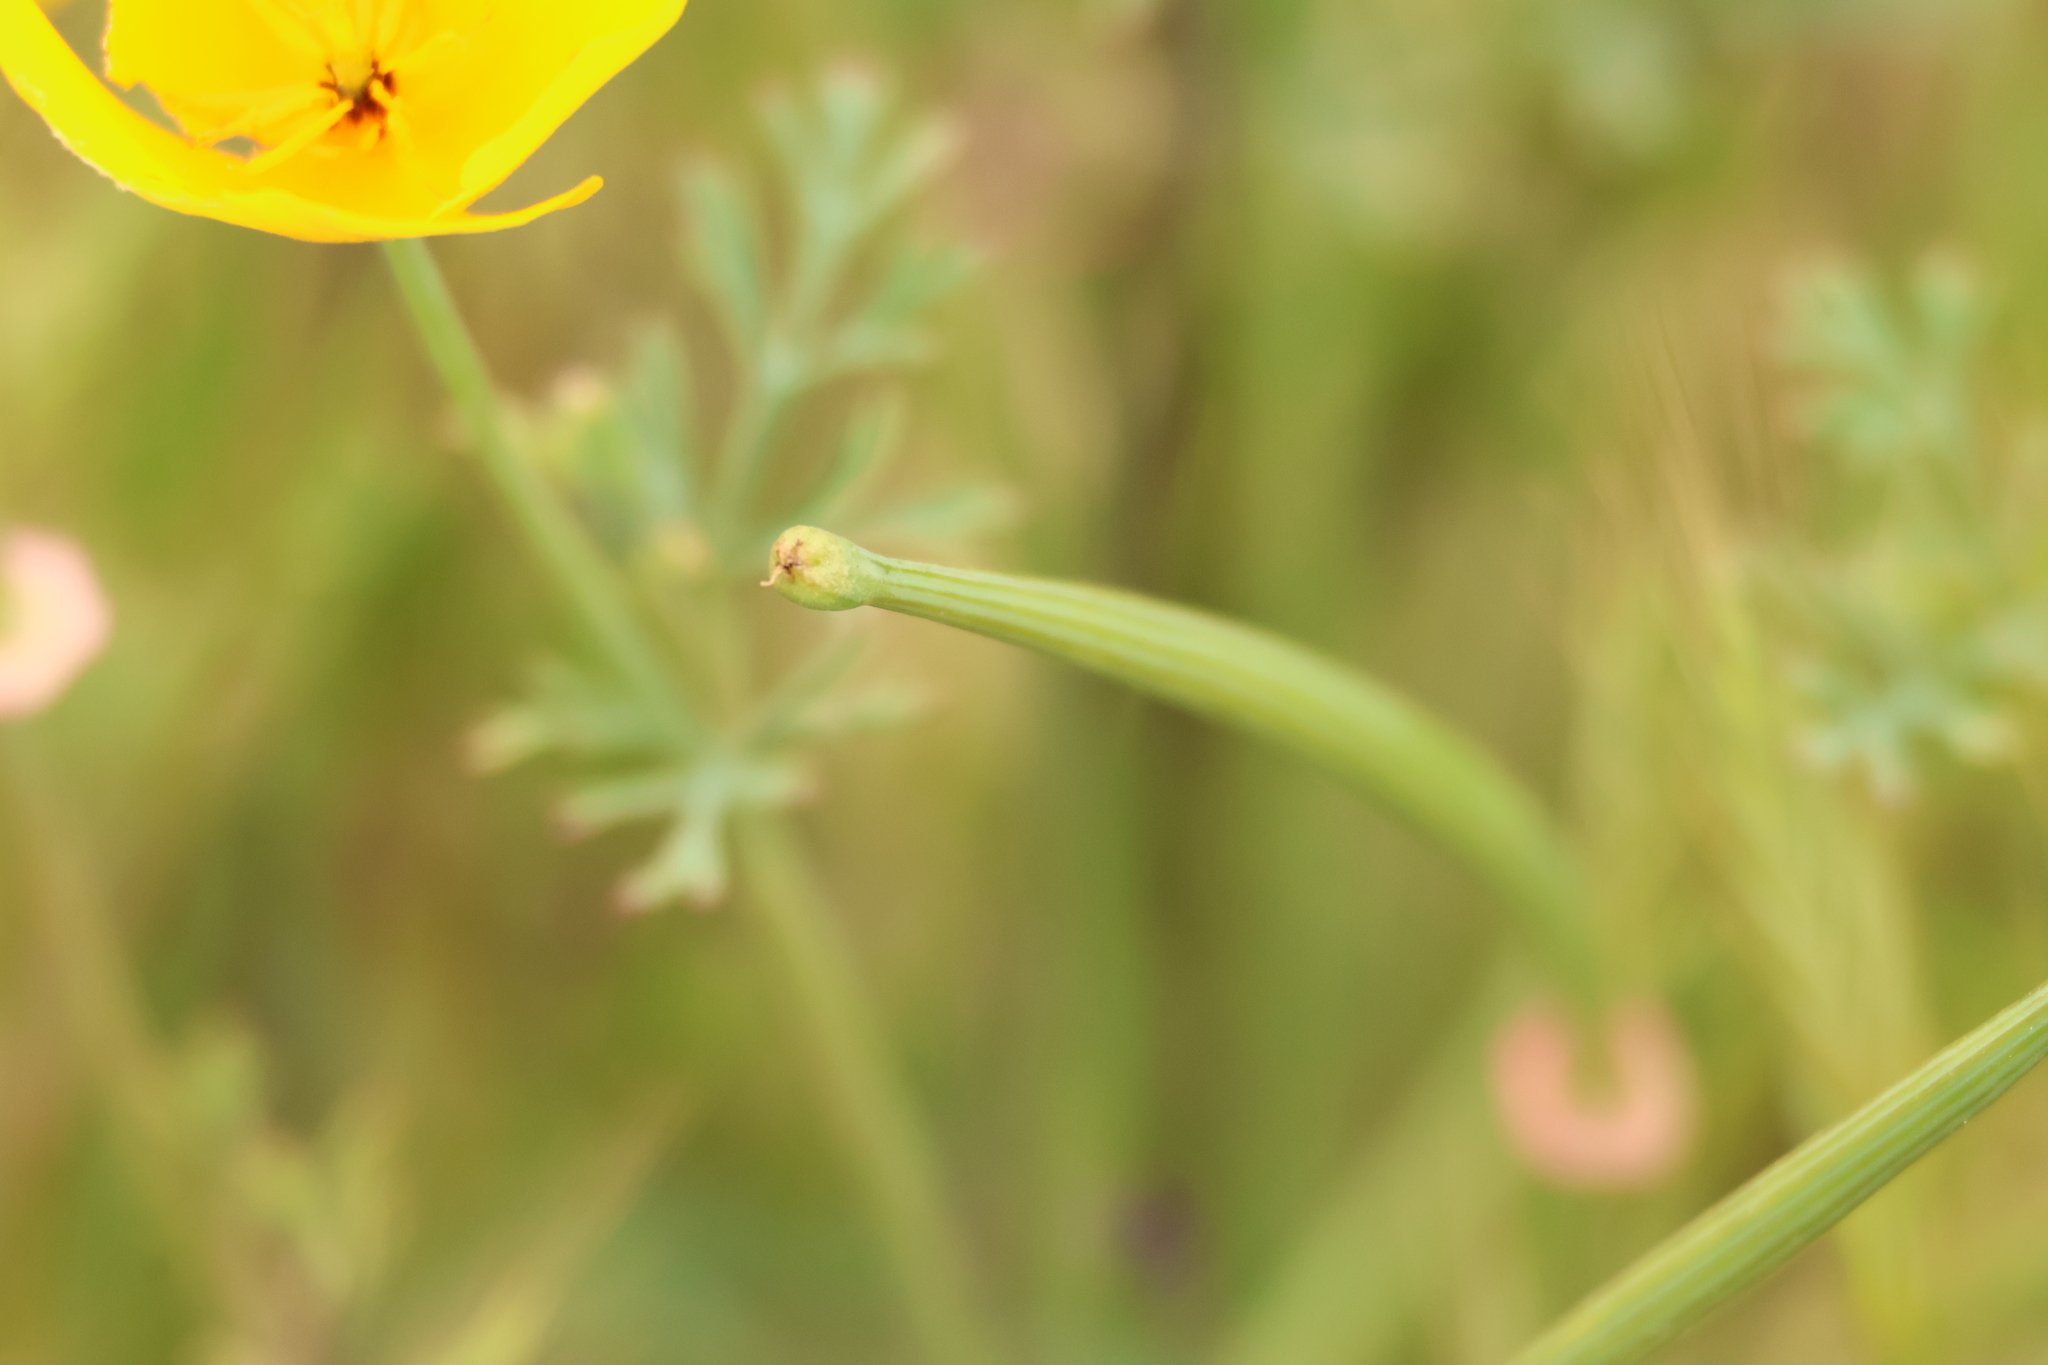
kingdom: Plantae
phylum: Tracheophyta
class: Magnoliopsida
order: Ranunculales
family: Papaveraceae
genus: Eschscholzia
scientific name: Eschscholzia californica
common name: California poppy
